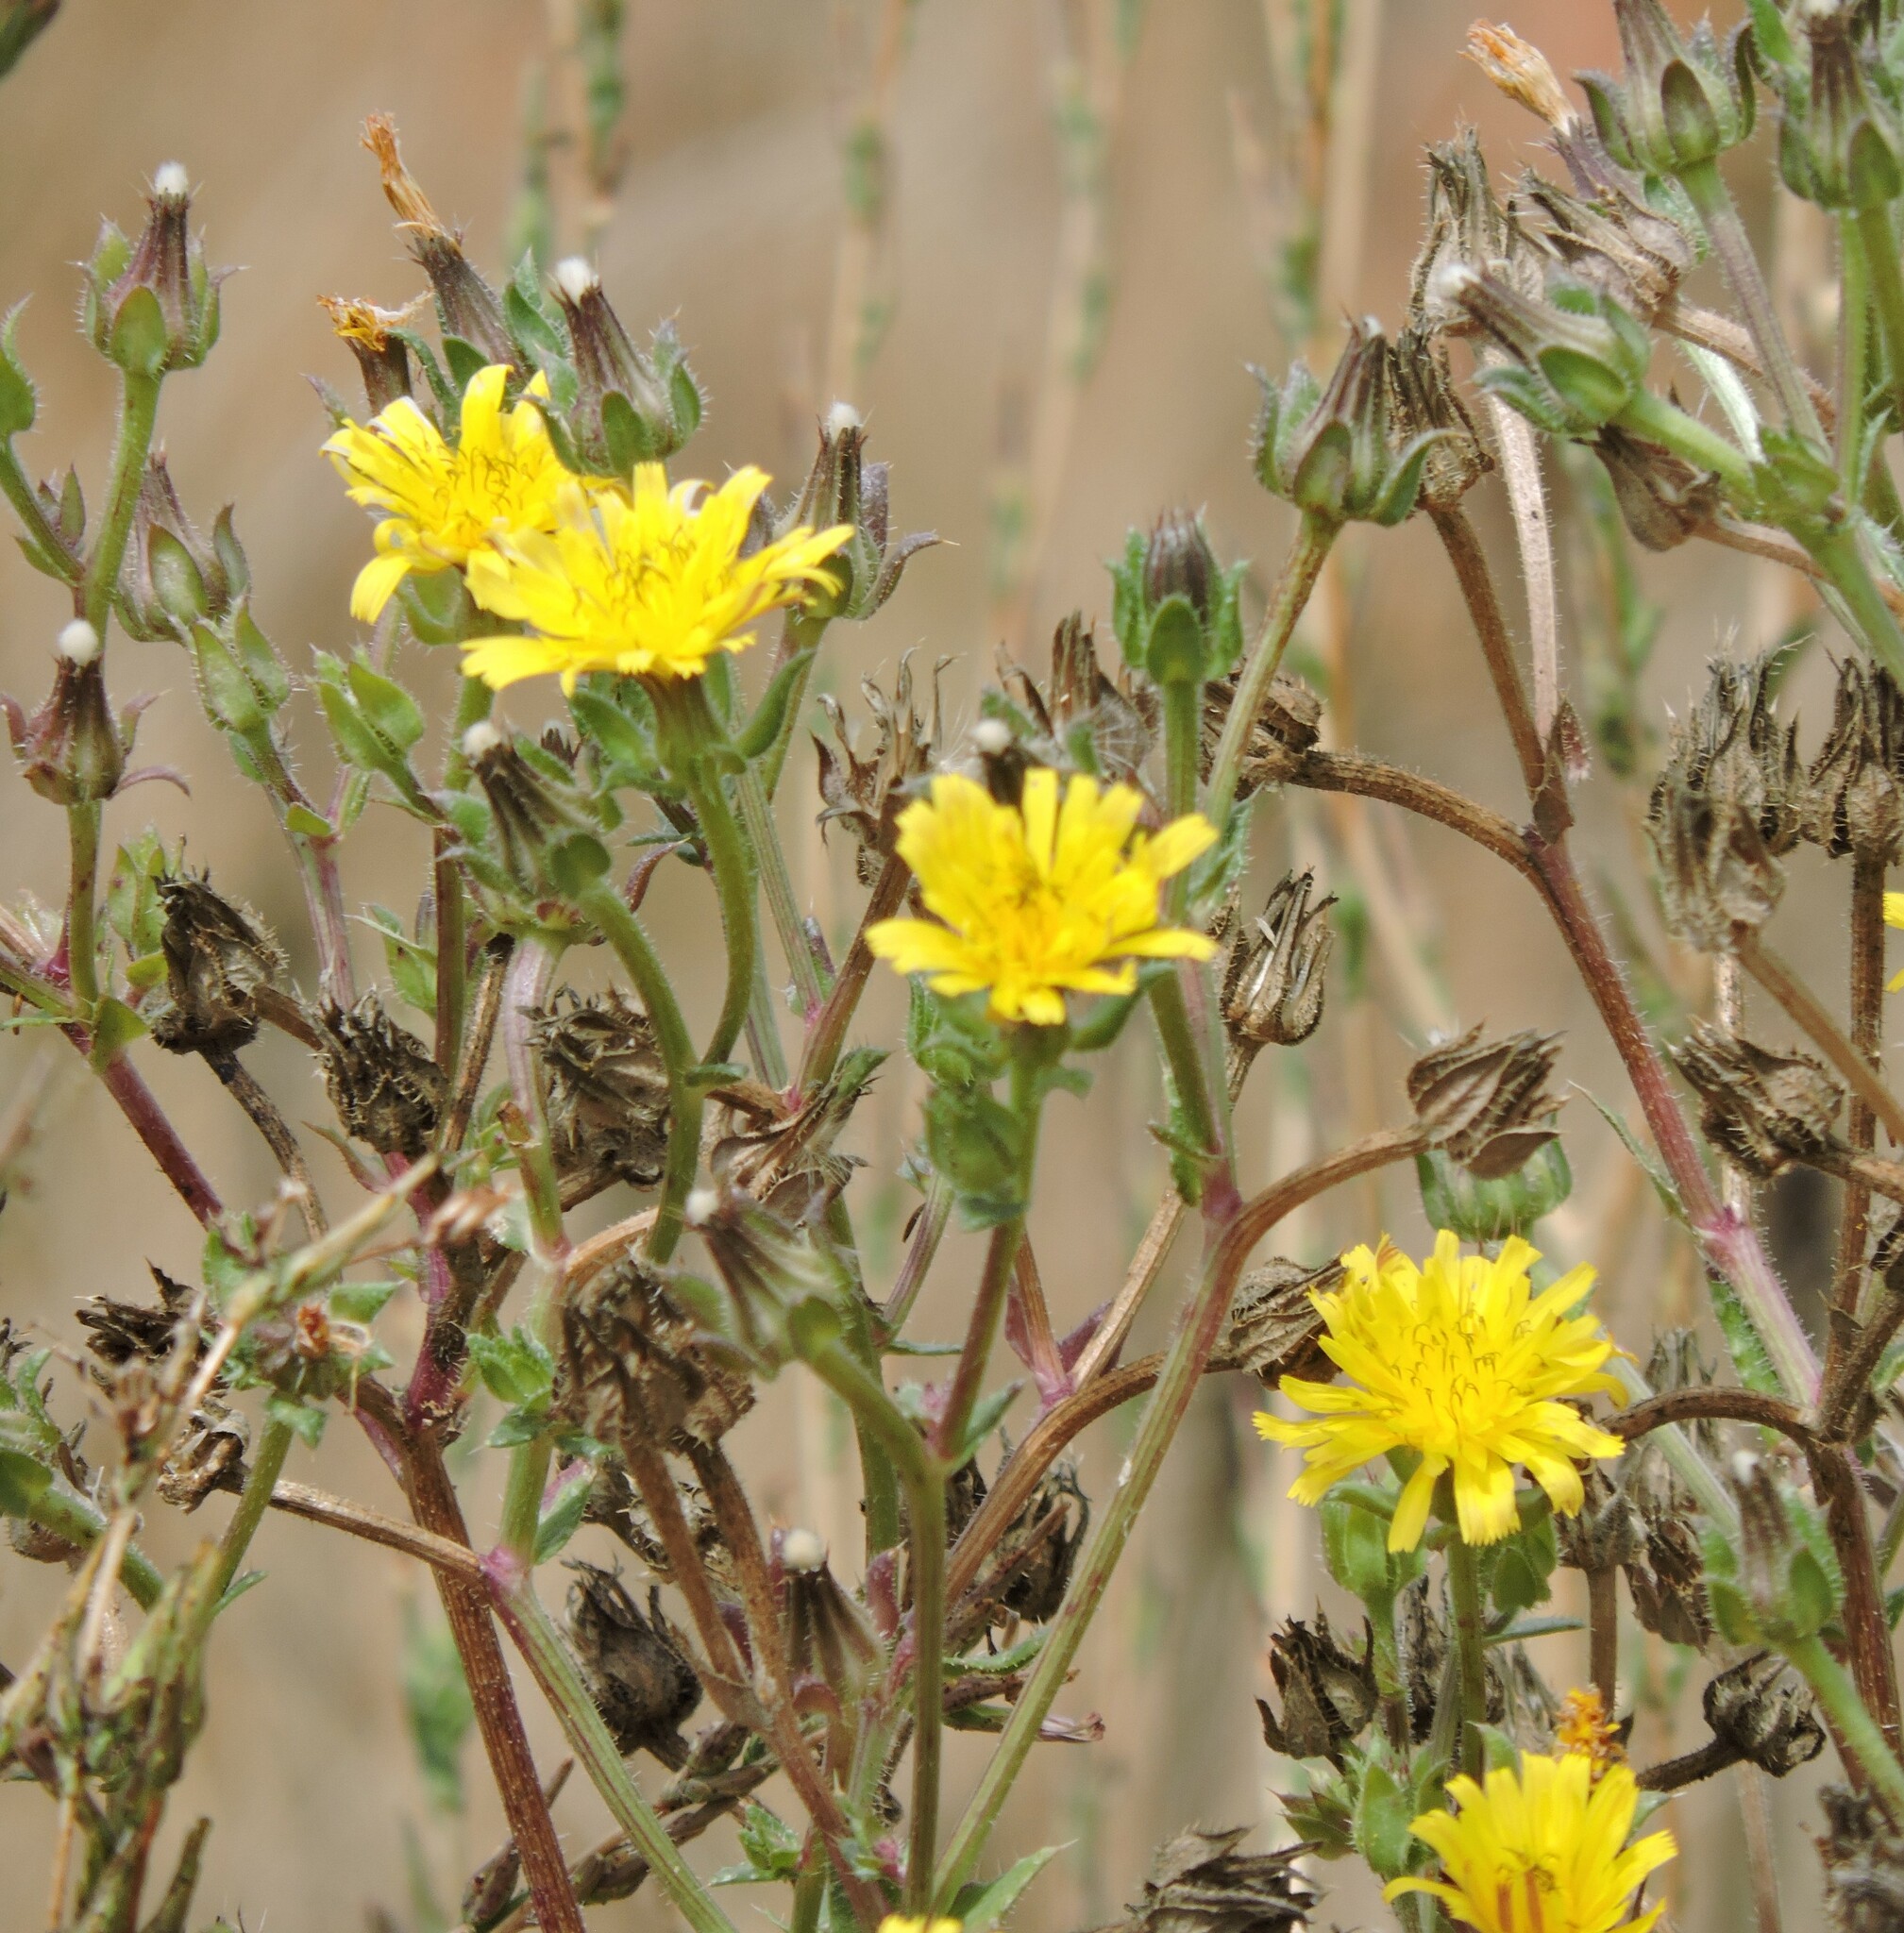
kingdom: Plantae
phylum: Tracheophyta
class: Magnoliopsida
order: Asterales
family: Asteraceae
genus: Helminthotheca
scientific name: Helminthotheca echioides
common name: Ox-tongue
